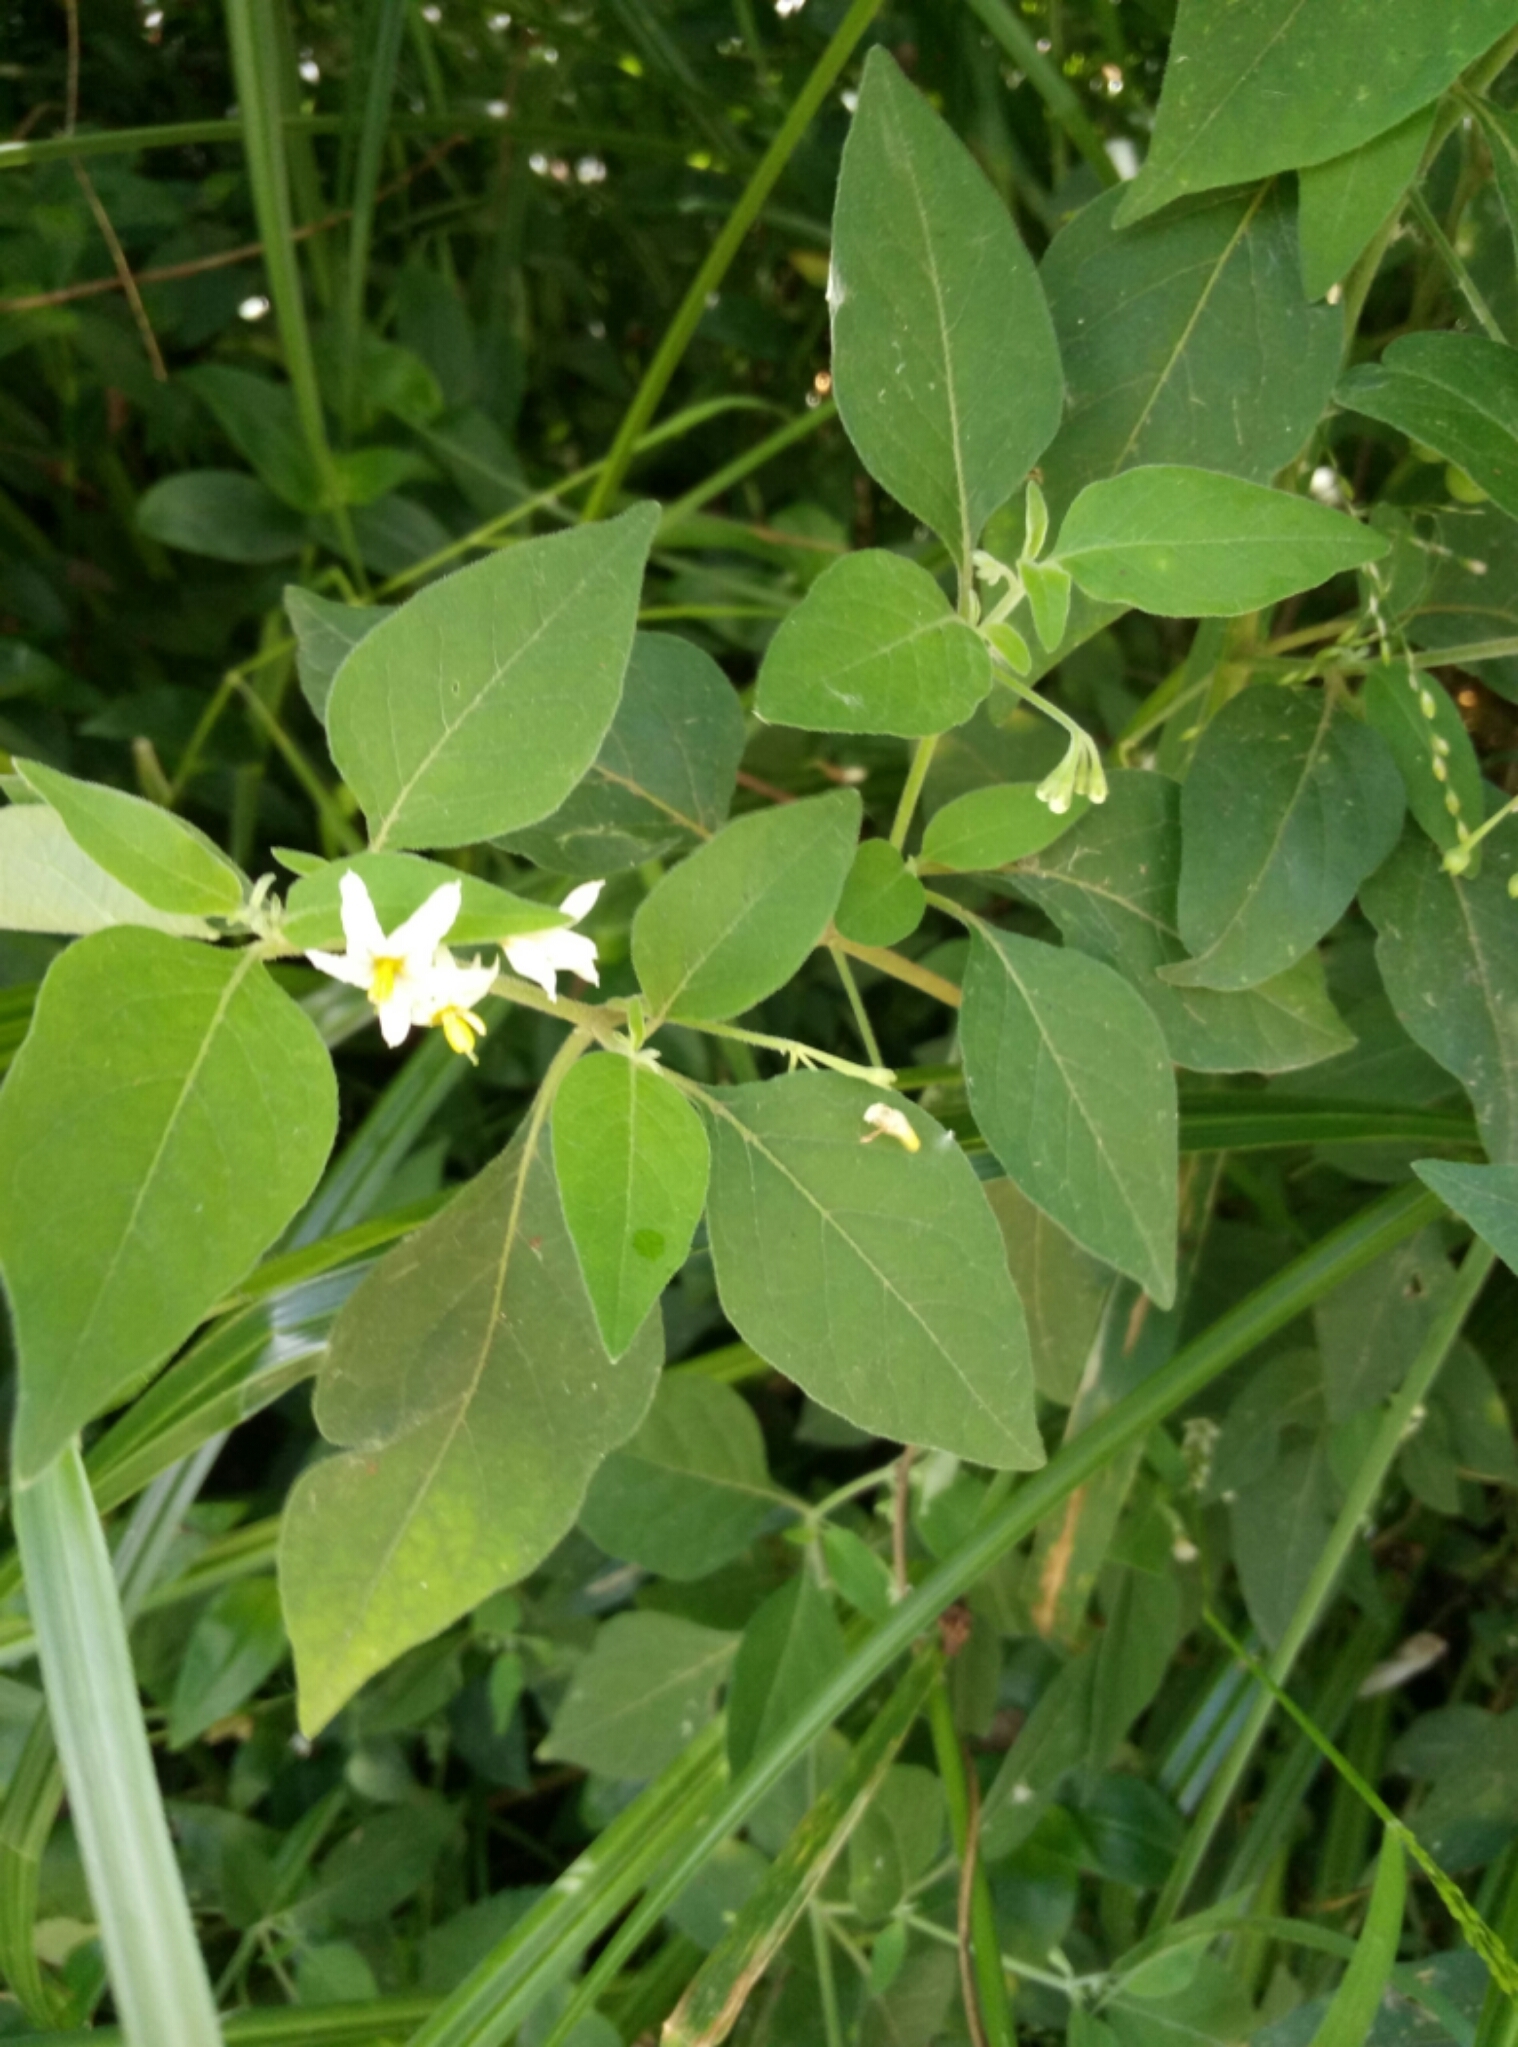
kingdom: Plantae
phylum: Tracheophyta
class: Magnoliopsida
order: Solanales
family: Solanaceae
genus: Solanum
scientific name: Solanum chenopodioides
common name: Tall nightshade
